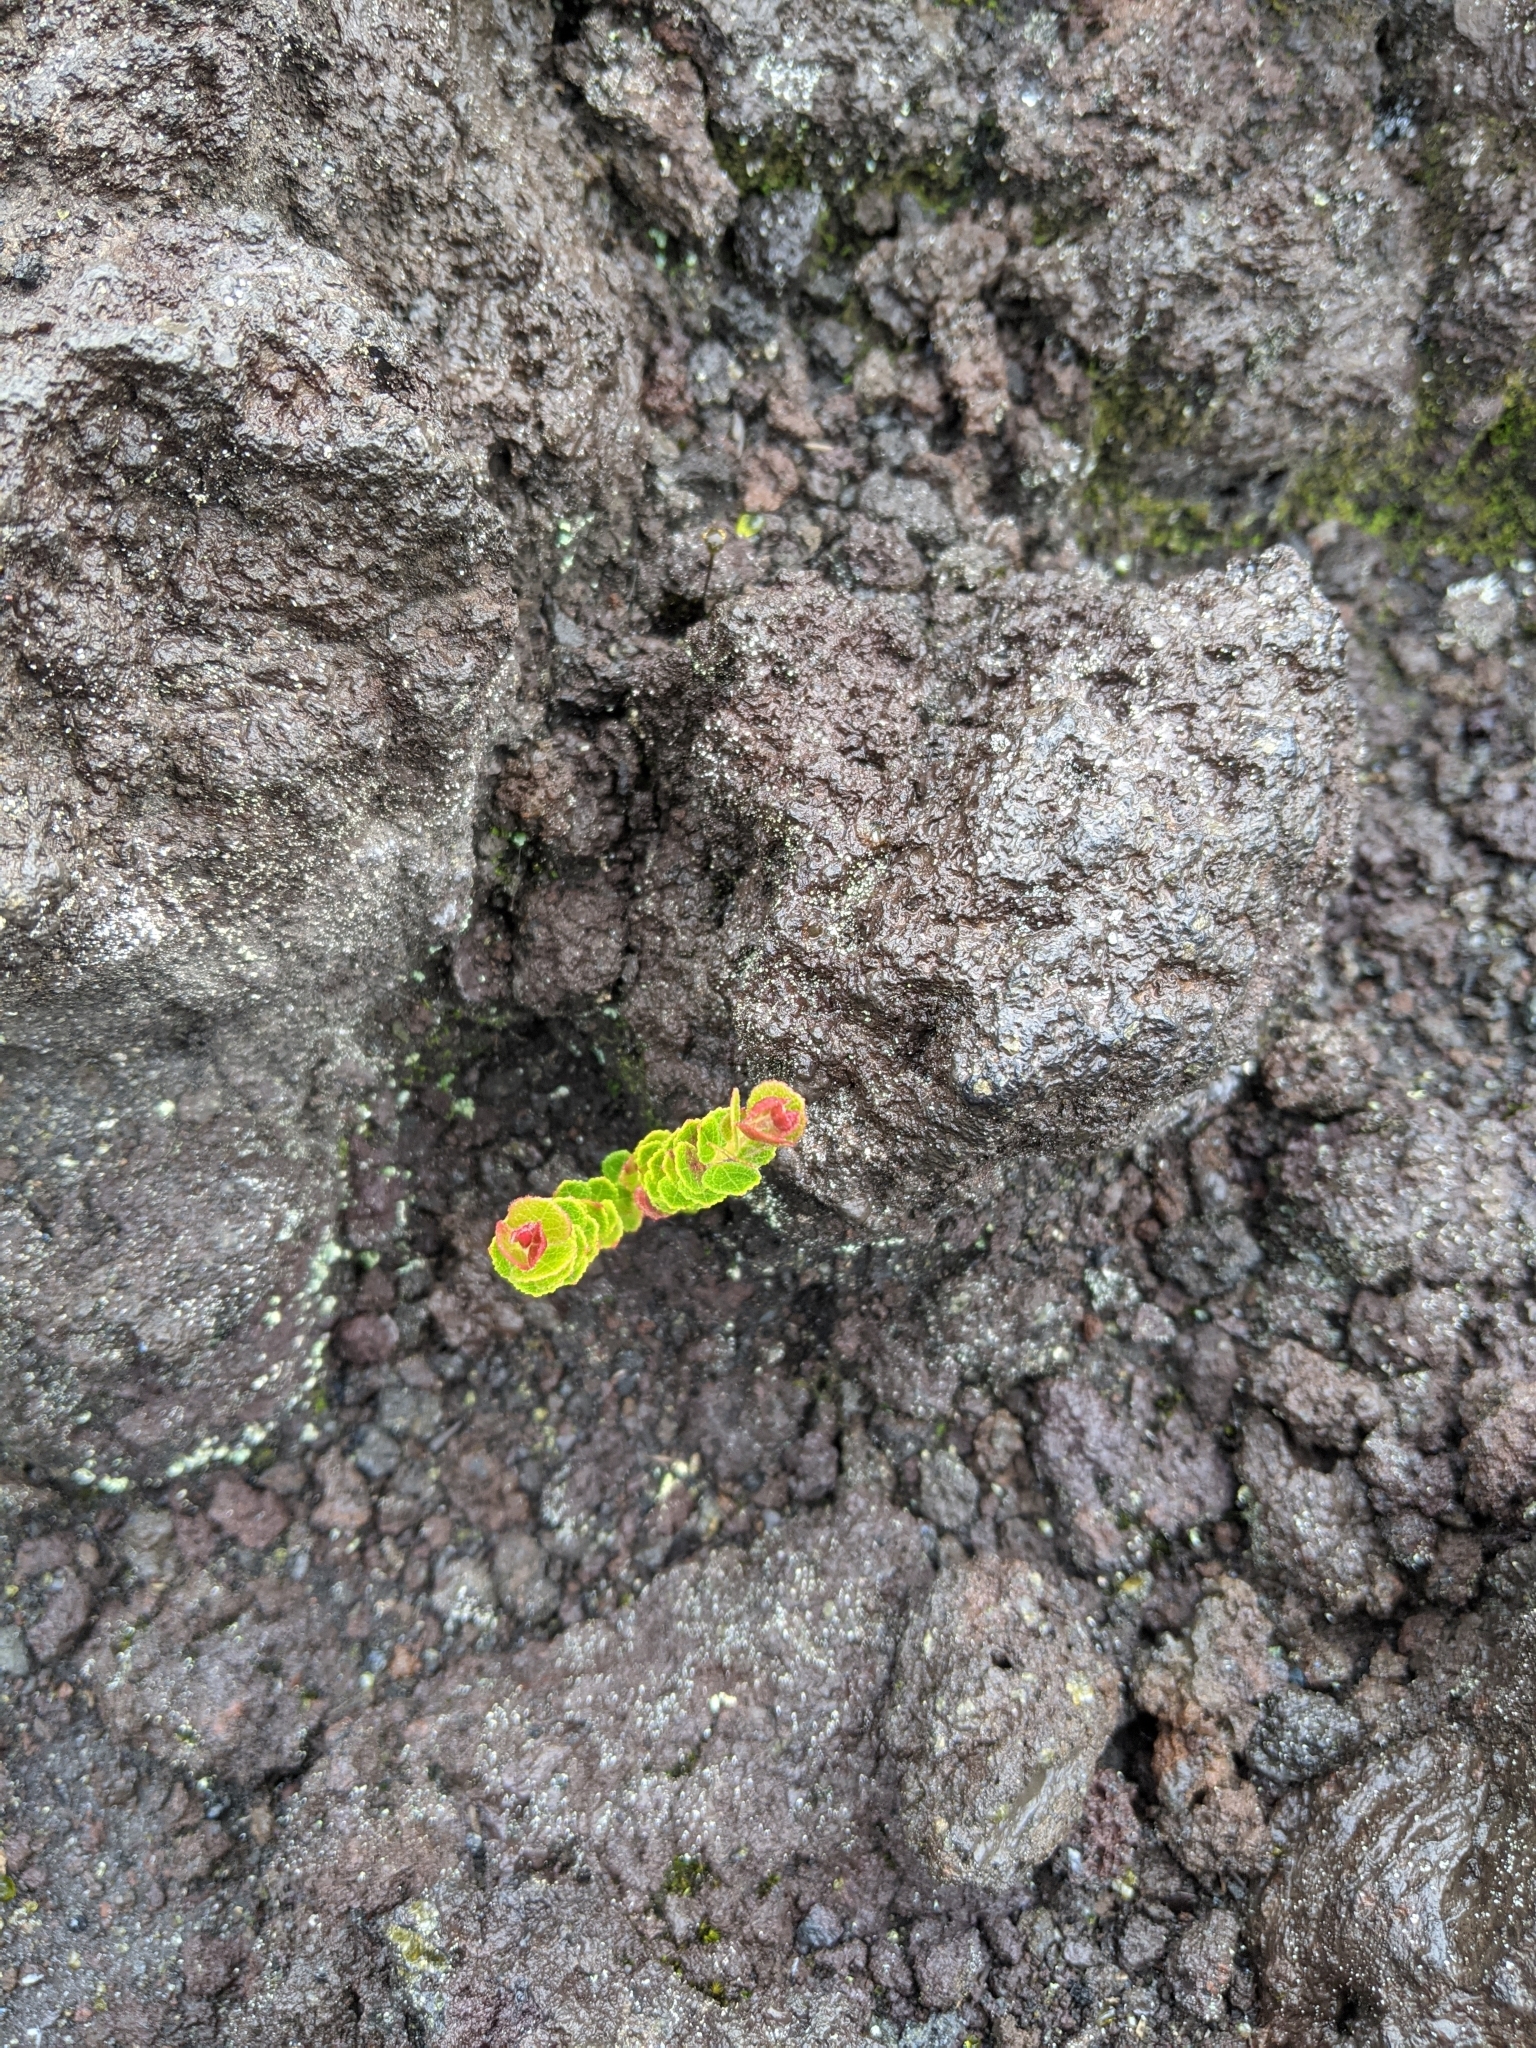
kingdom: Plantae
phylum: Tracheophyta
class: Magnoliopsida
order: Ericales
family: Ericaceae
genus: Vaccinium
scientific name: Vaccinium reticulatum
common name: Ohelo
